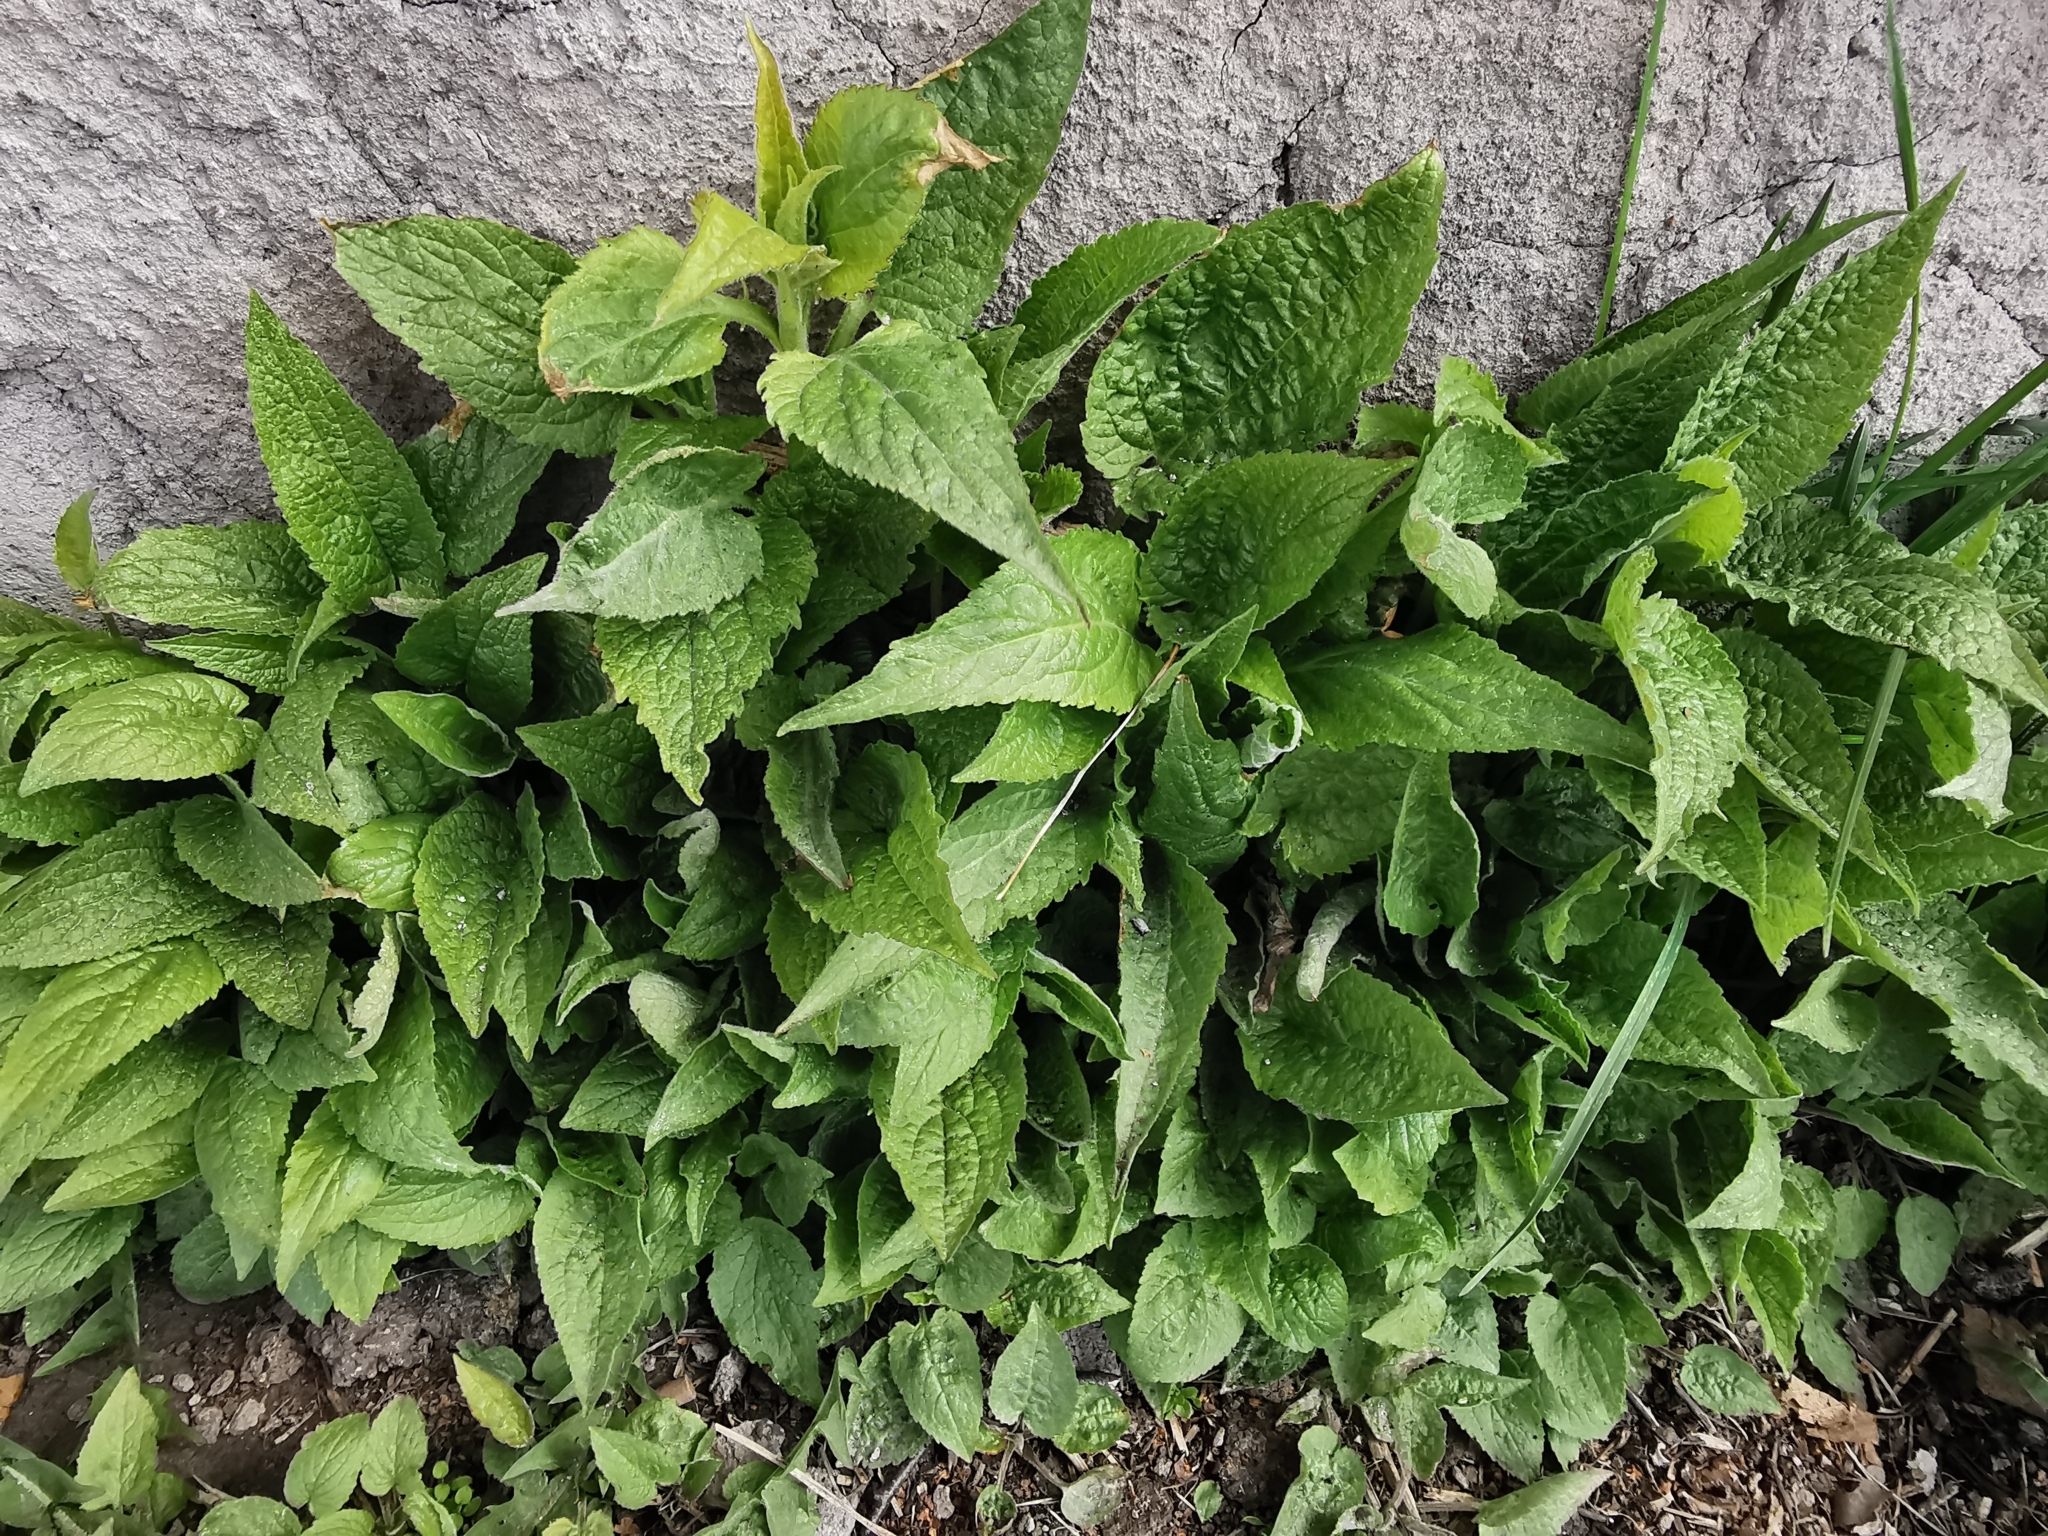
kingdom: Plantae
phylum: Tracheophyta
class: Magnoliopsida
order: Asterales
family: Campanulaceae
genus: Campanula
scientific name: Campanula rapunculoides
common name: Creeping bellflower
